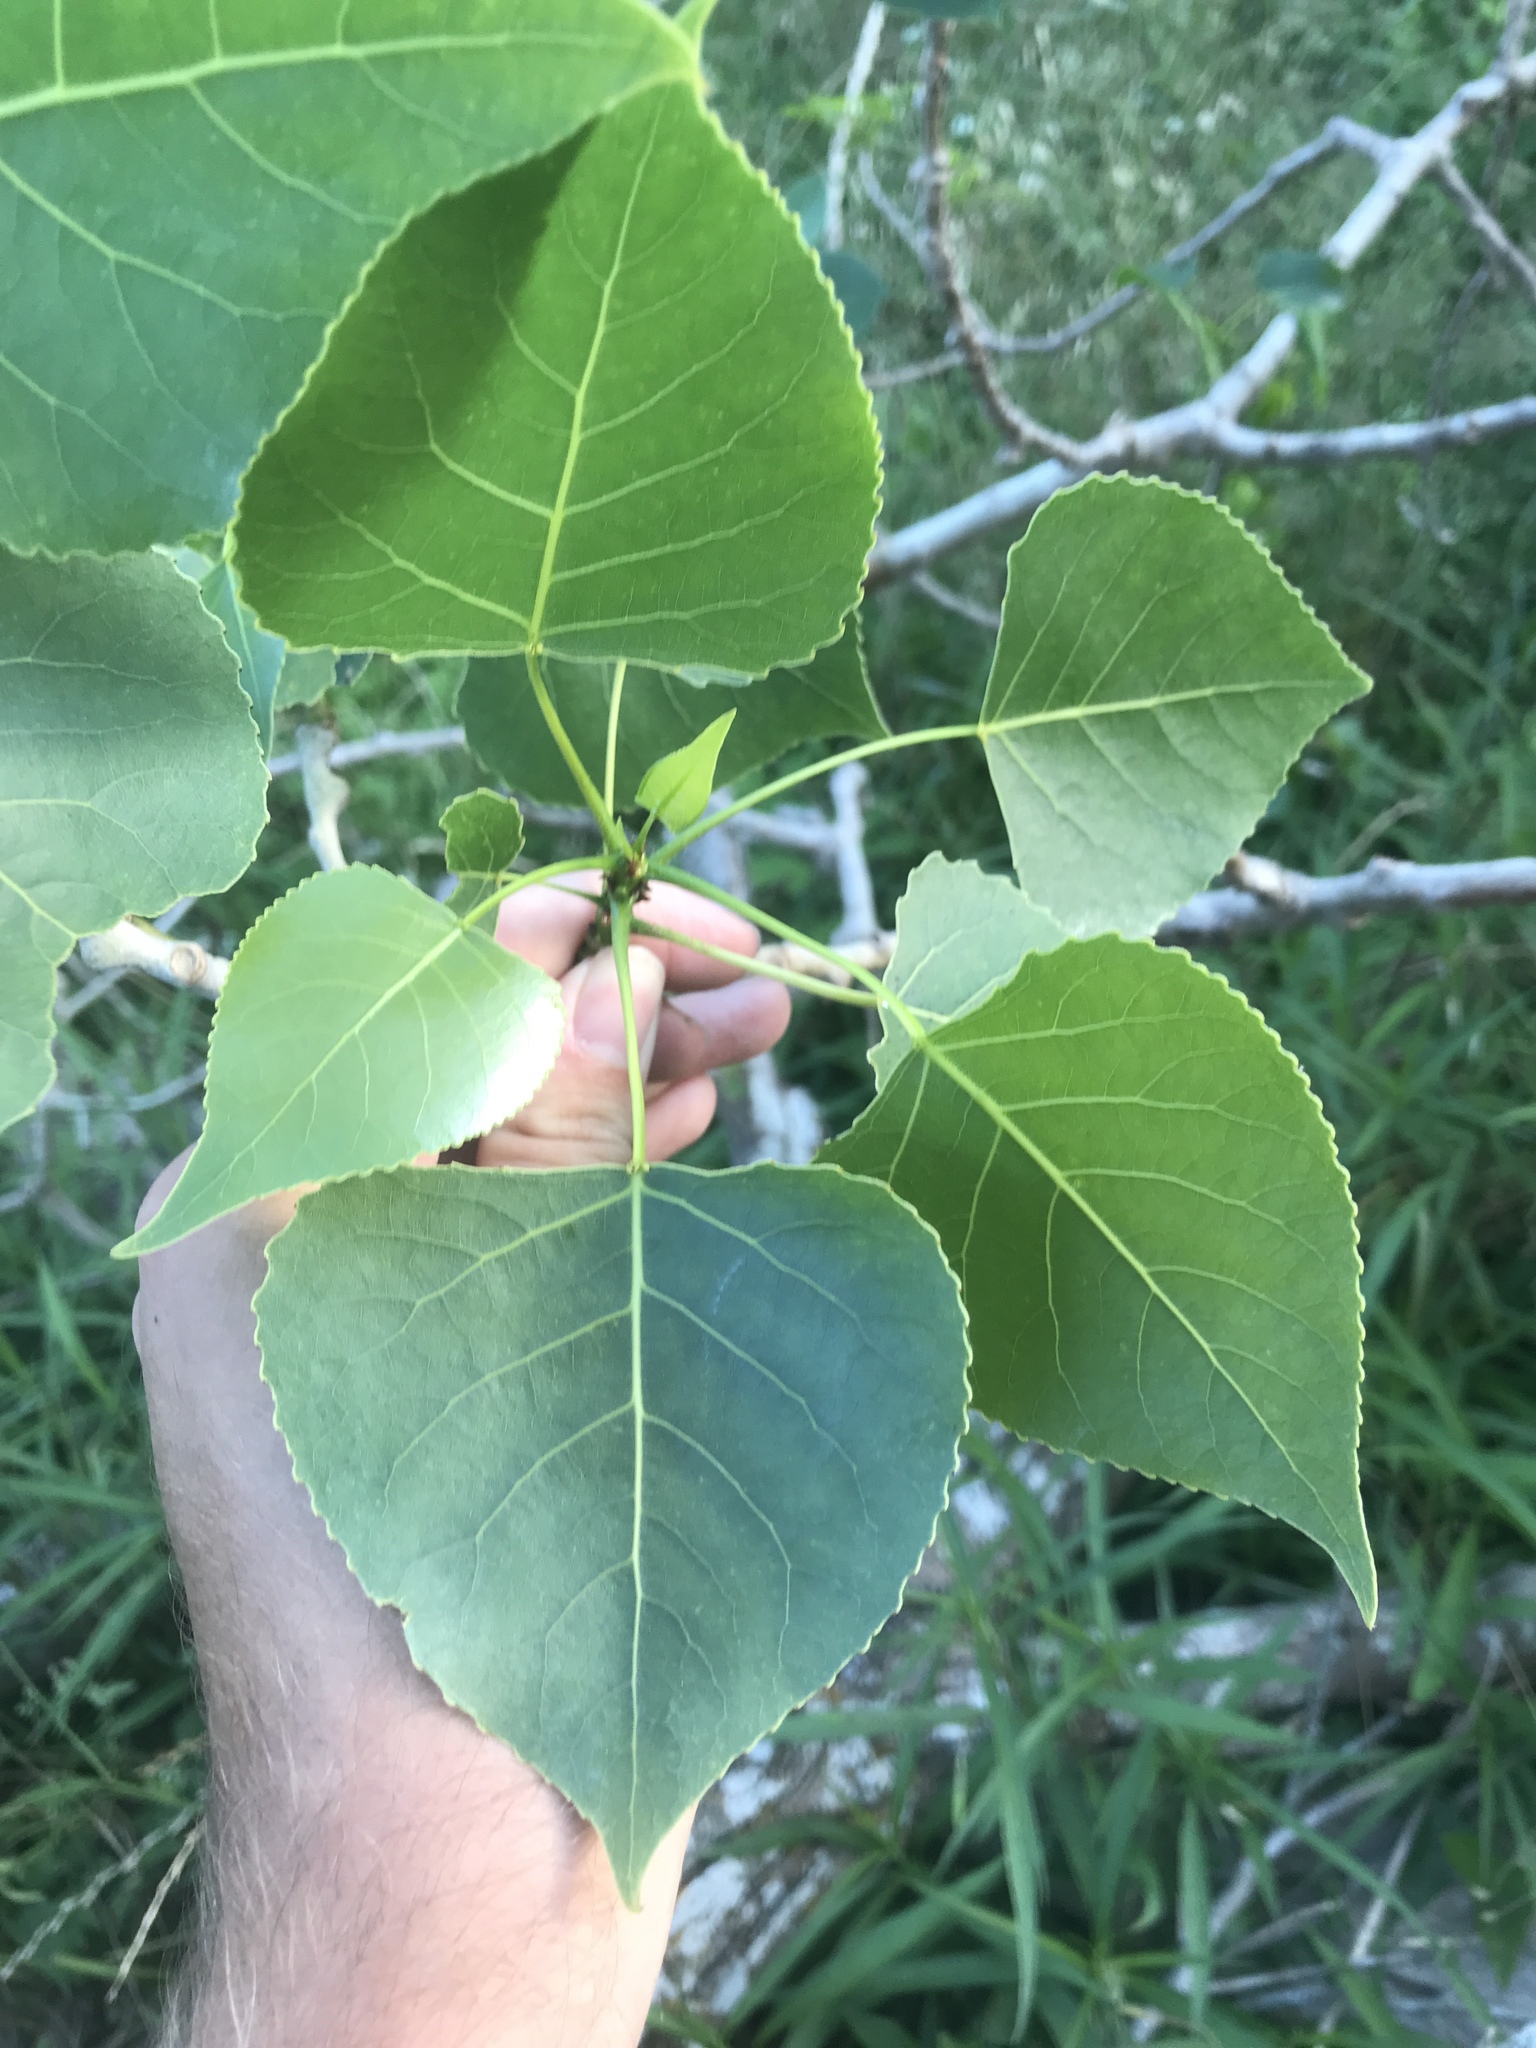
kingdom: Plantae
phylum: Tracheophyta
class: Magnoliopsida
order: Malpighiales
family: Salicaceae
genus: Populus
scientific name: Populus deltoides
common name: Eastern cottonwood
